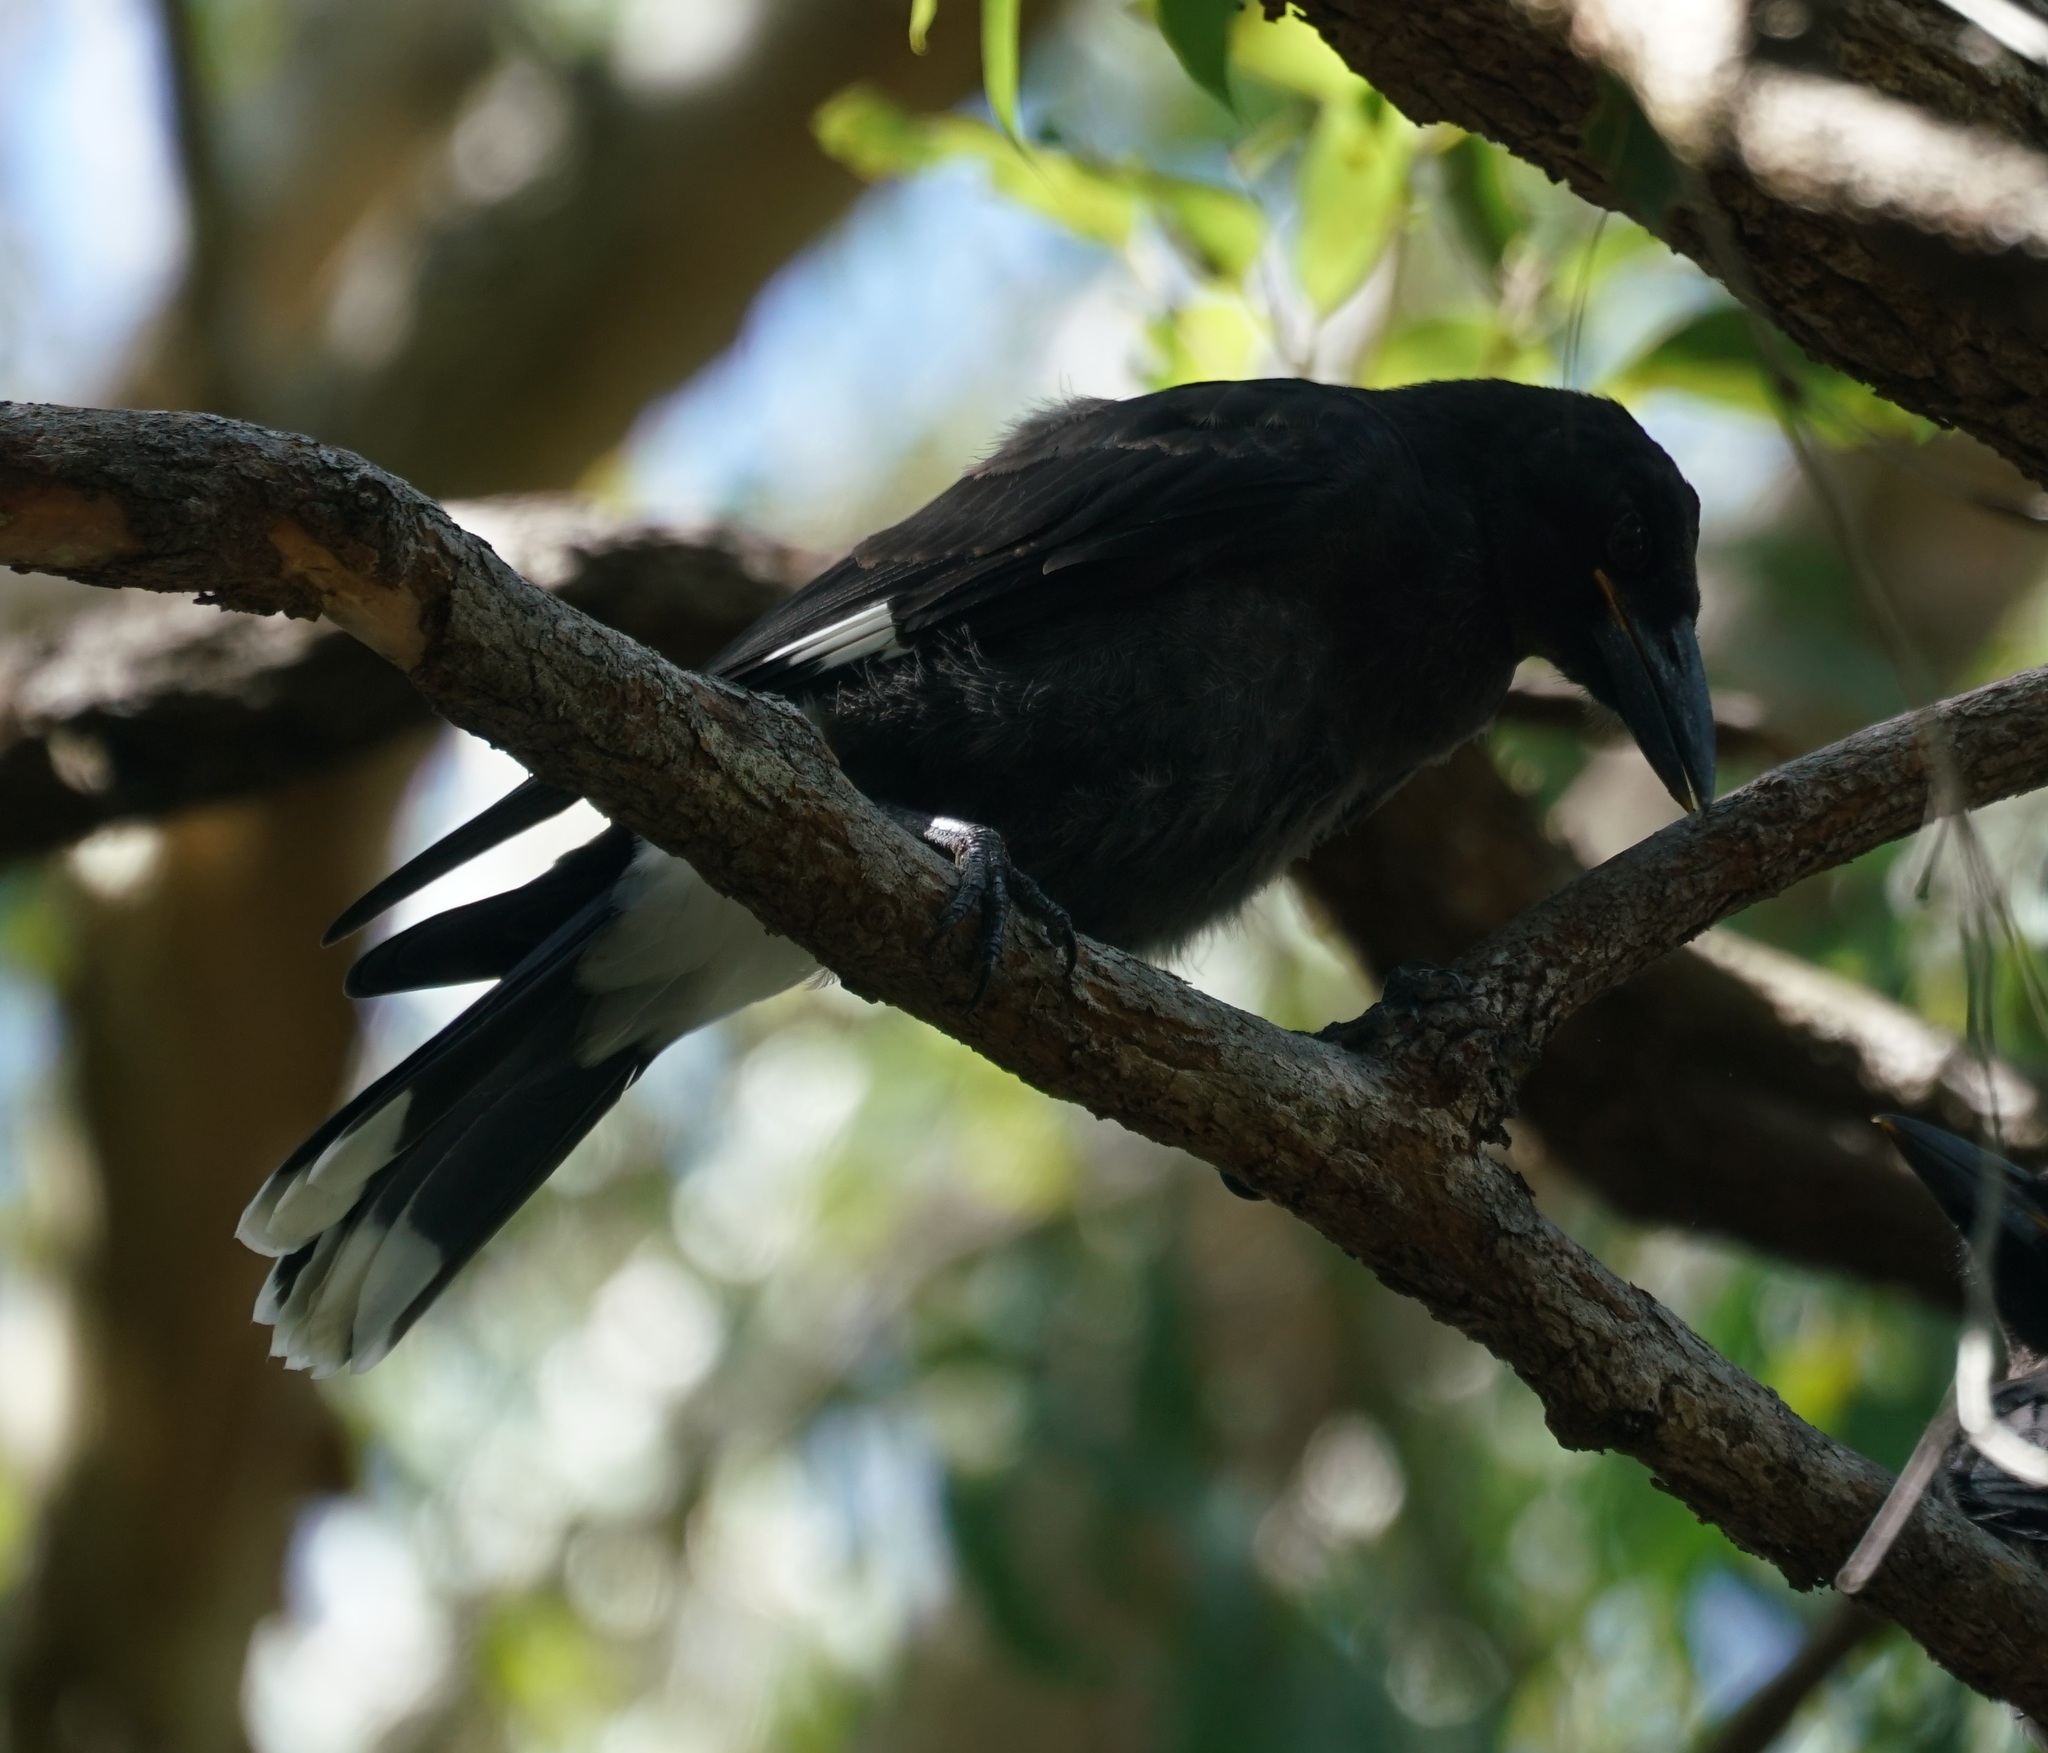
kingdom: Animalia
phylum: Chordata
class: Aves
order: Passeriformes
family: Cracticidae
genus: Strepera
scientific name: Strepera graculina
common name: Pied currawong
